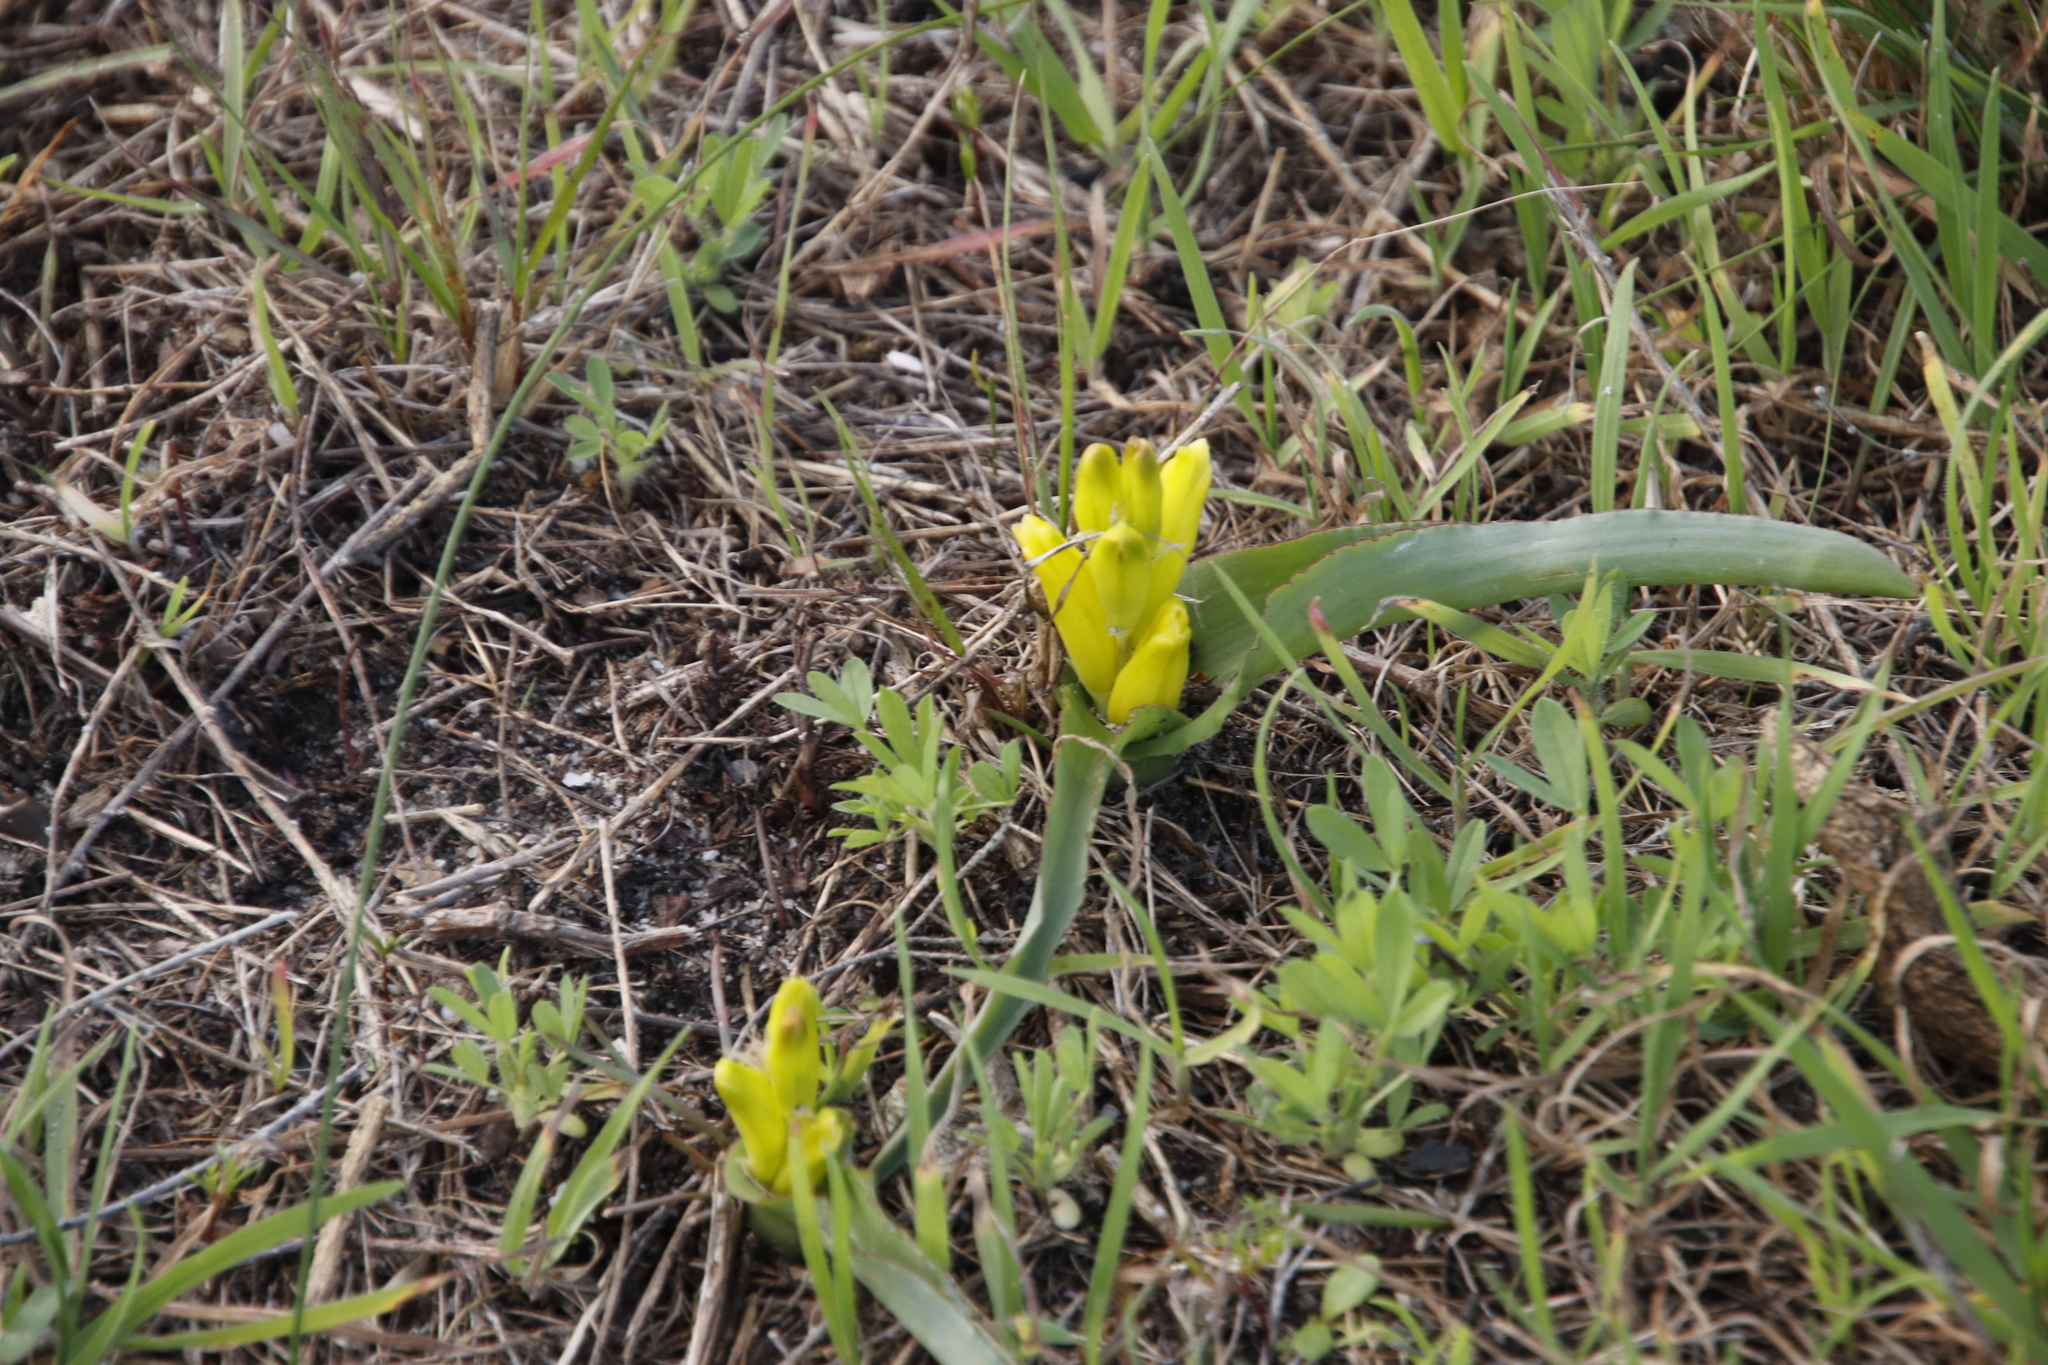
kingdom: Plantae
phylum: Tracheophyta
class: Liliopsida
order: Asparagales
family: Asparagaceae
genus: Lachenalia
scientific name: Lachenalia reflexa
